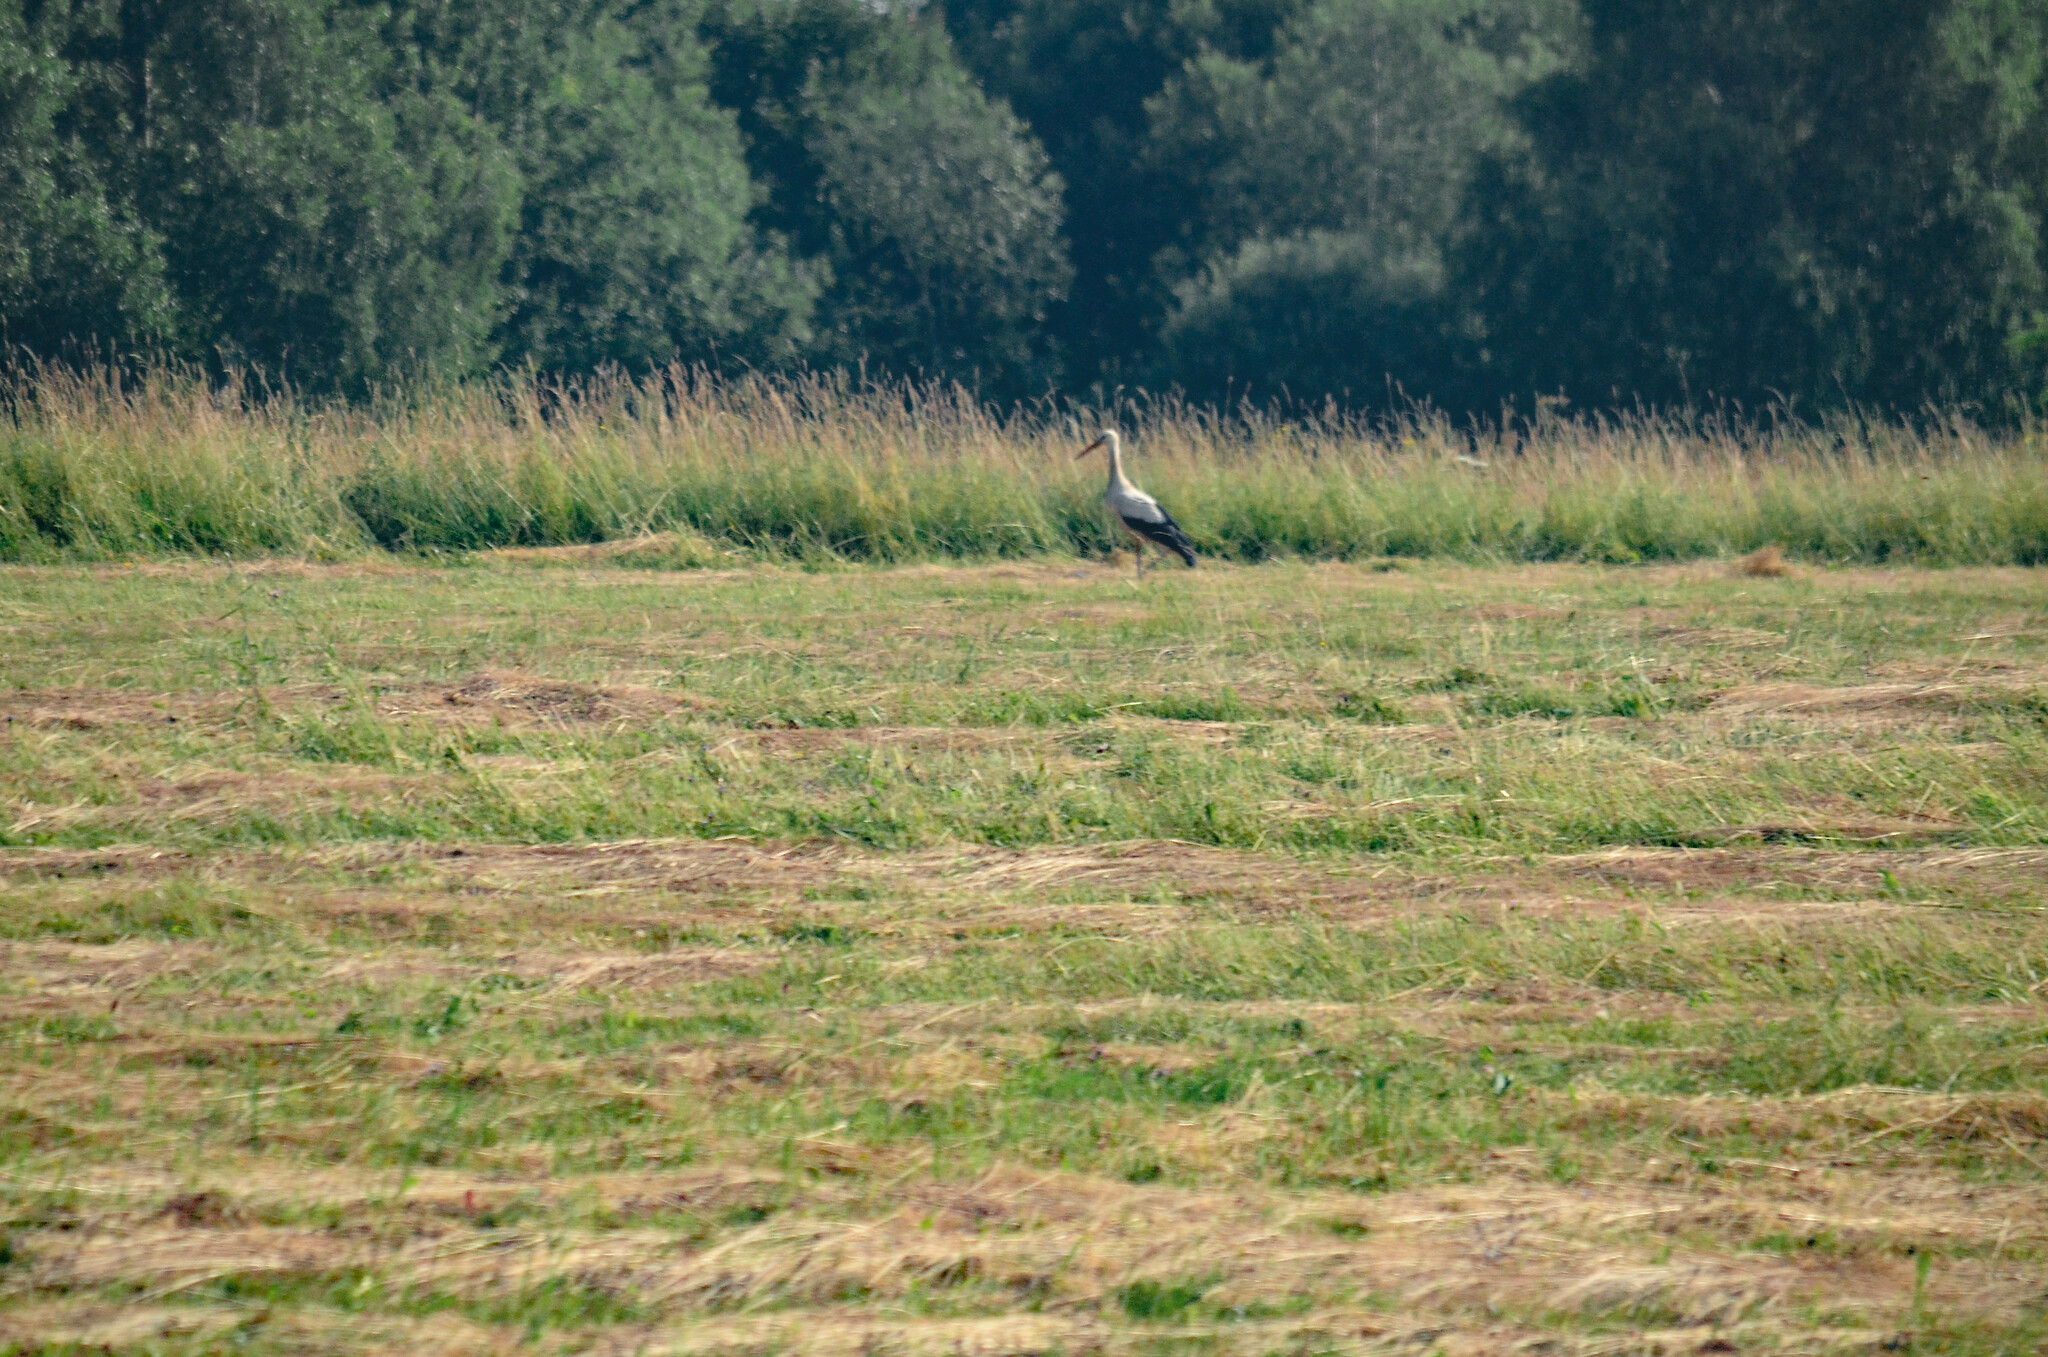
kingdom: Animalia
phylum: Chordata
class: Aves
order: Ciconiiformes
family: Ciconiidae
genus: Ciconia
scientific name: Ciconia ciconia
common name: White stork
